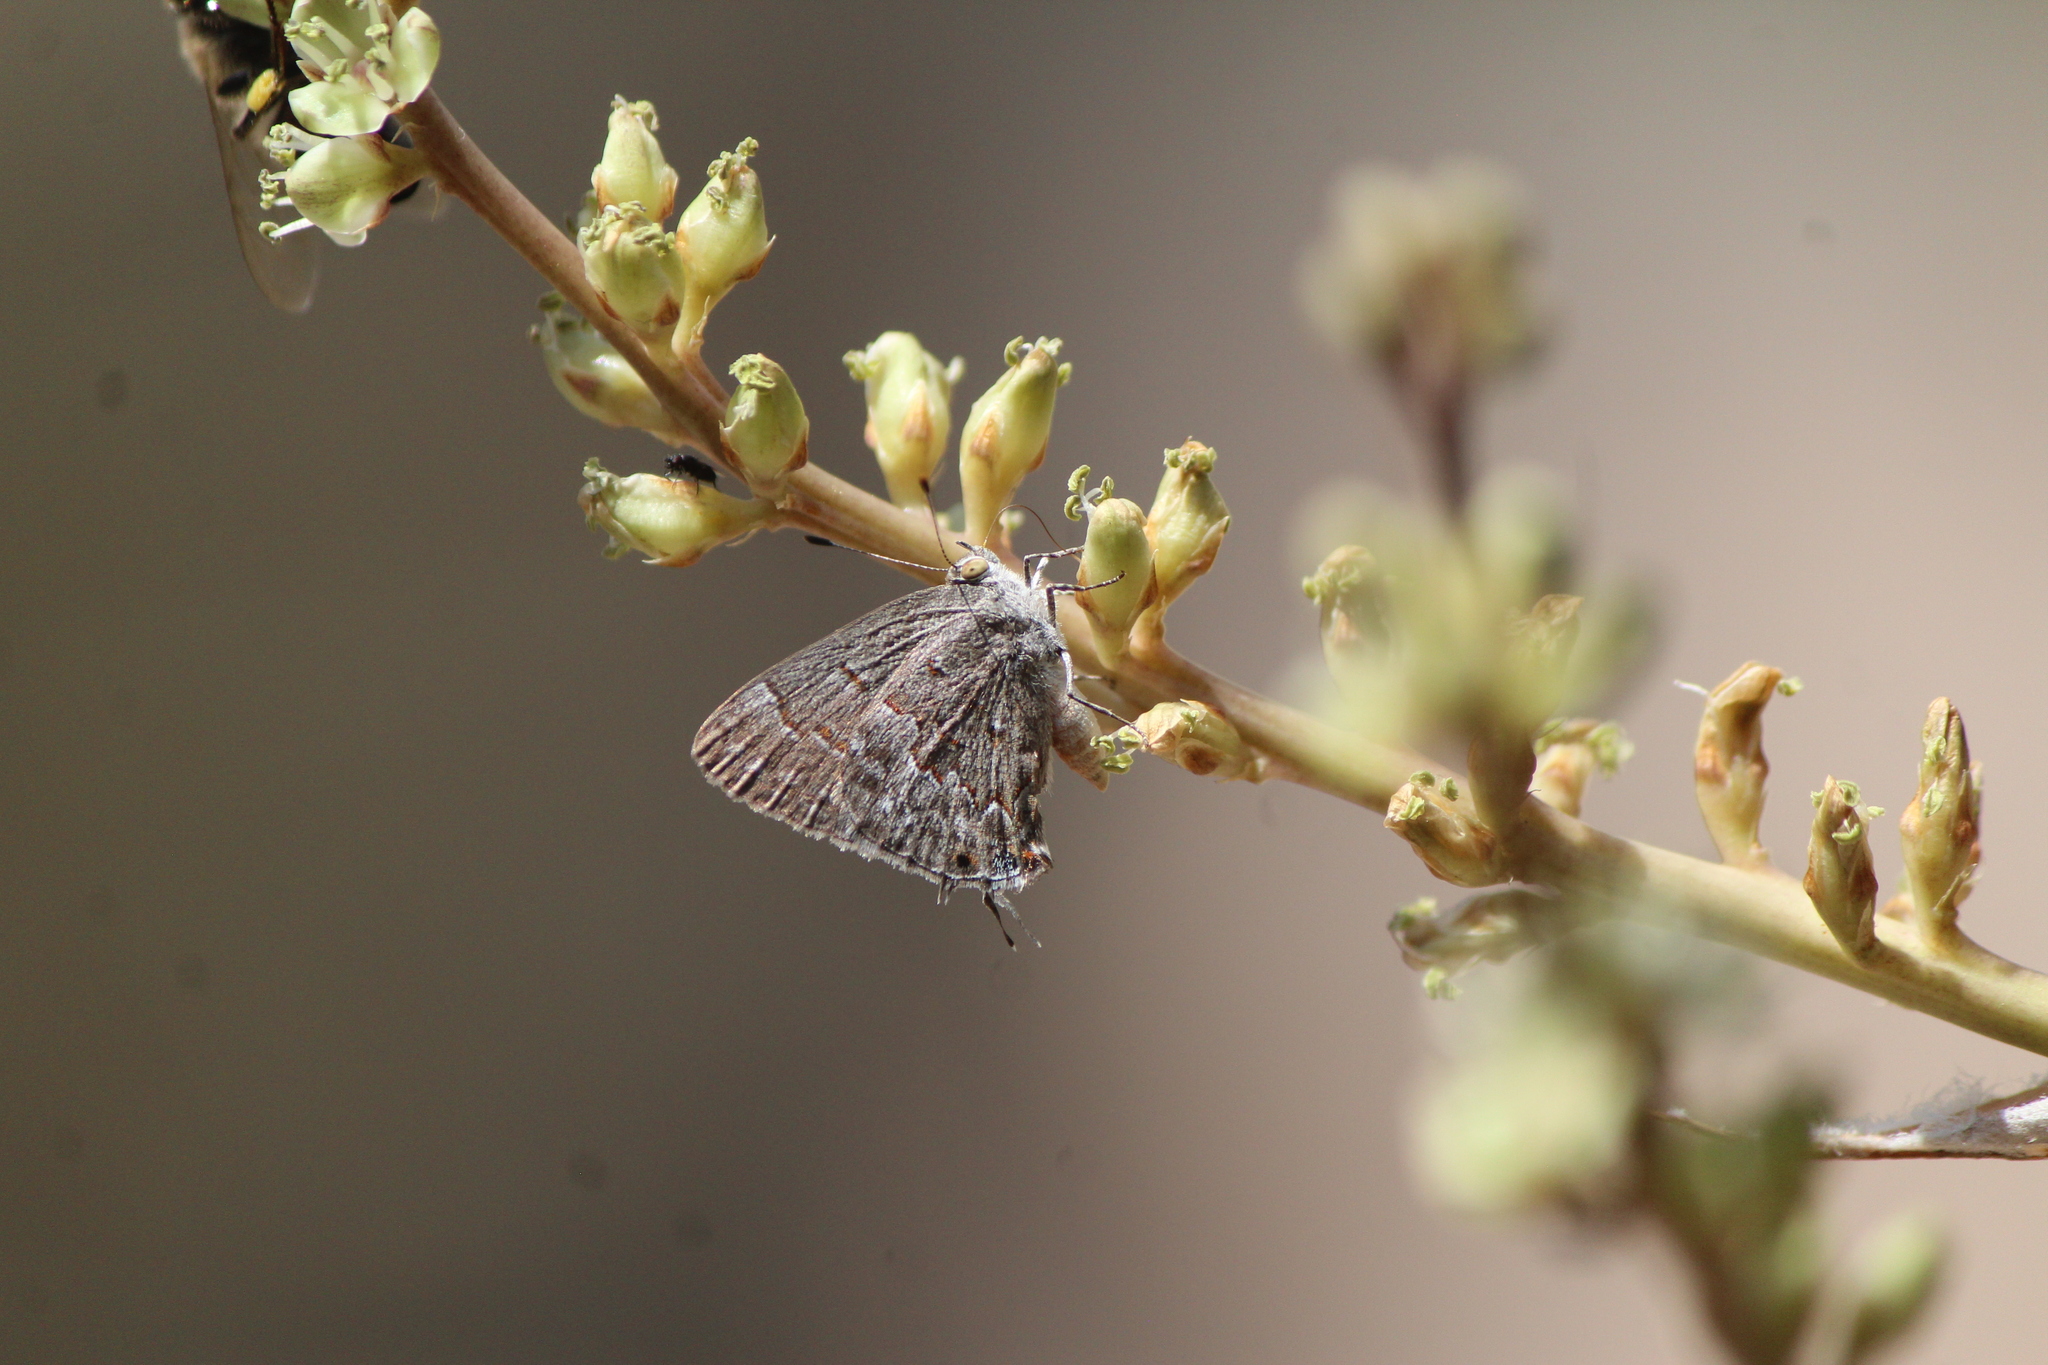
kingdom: Animalia
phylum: Arthropoda
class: Insecta
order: Lepidoptera
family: Lycaenidae
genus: Ministrymon
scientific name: Ministrymon leda
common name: Leda ministreak
